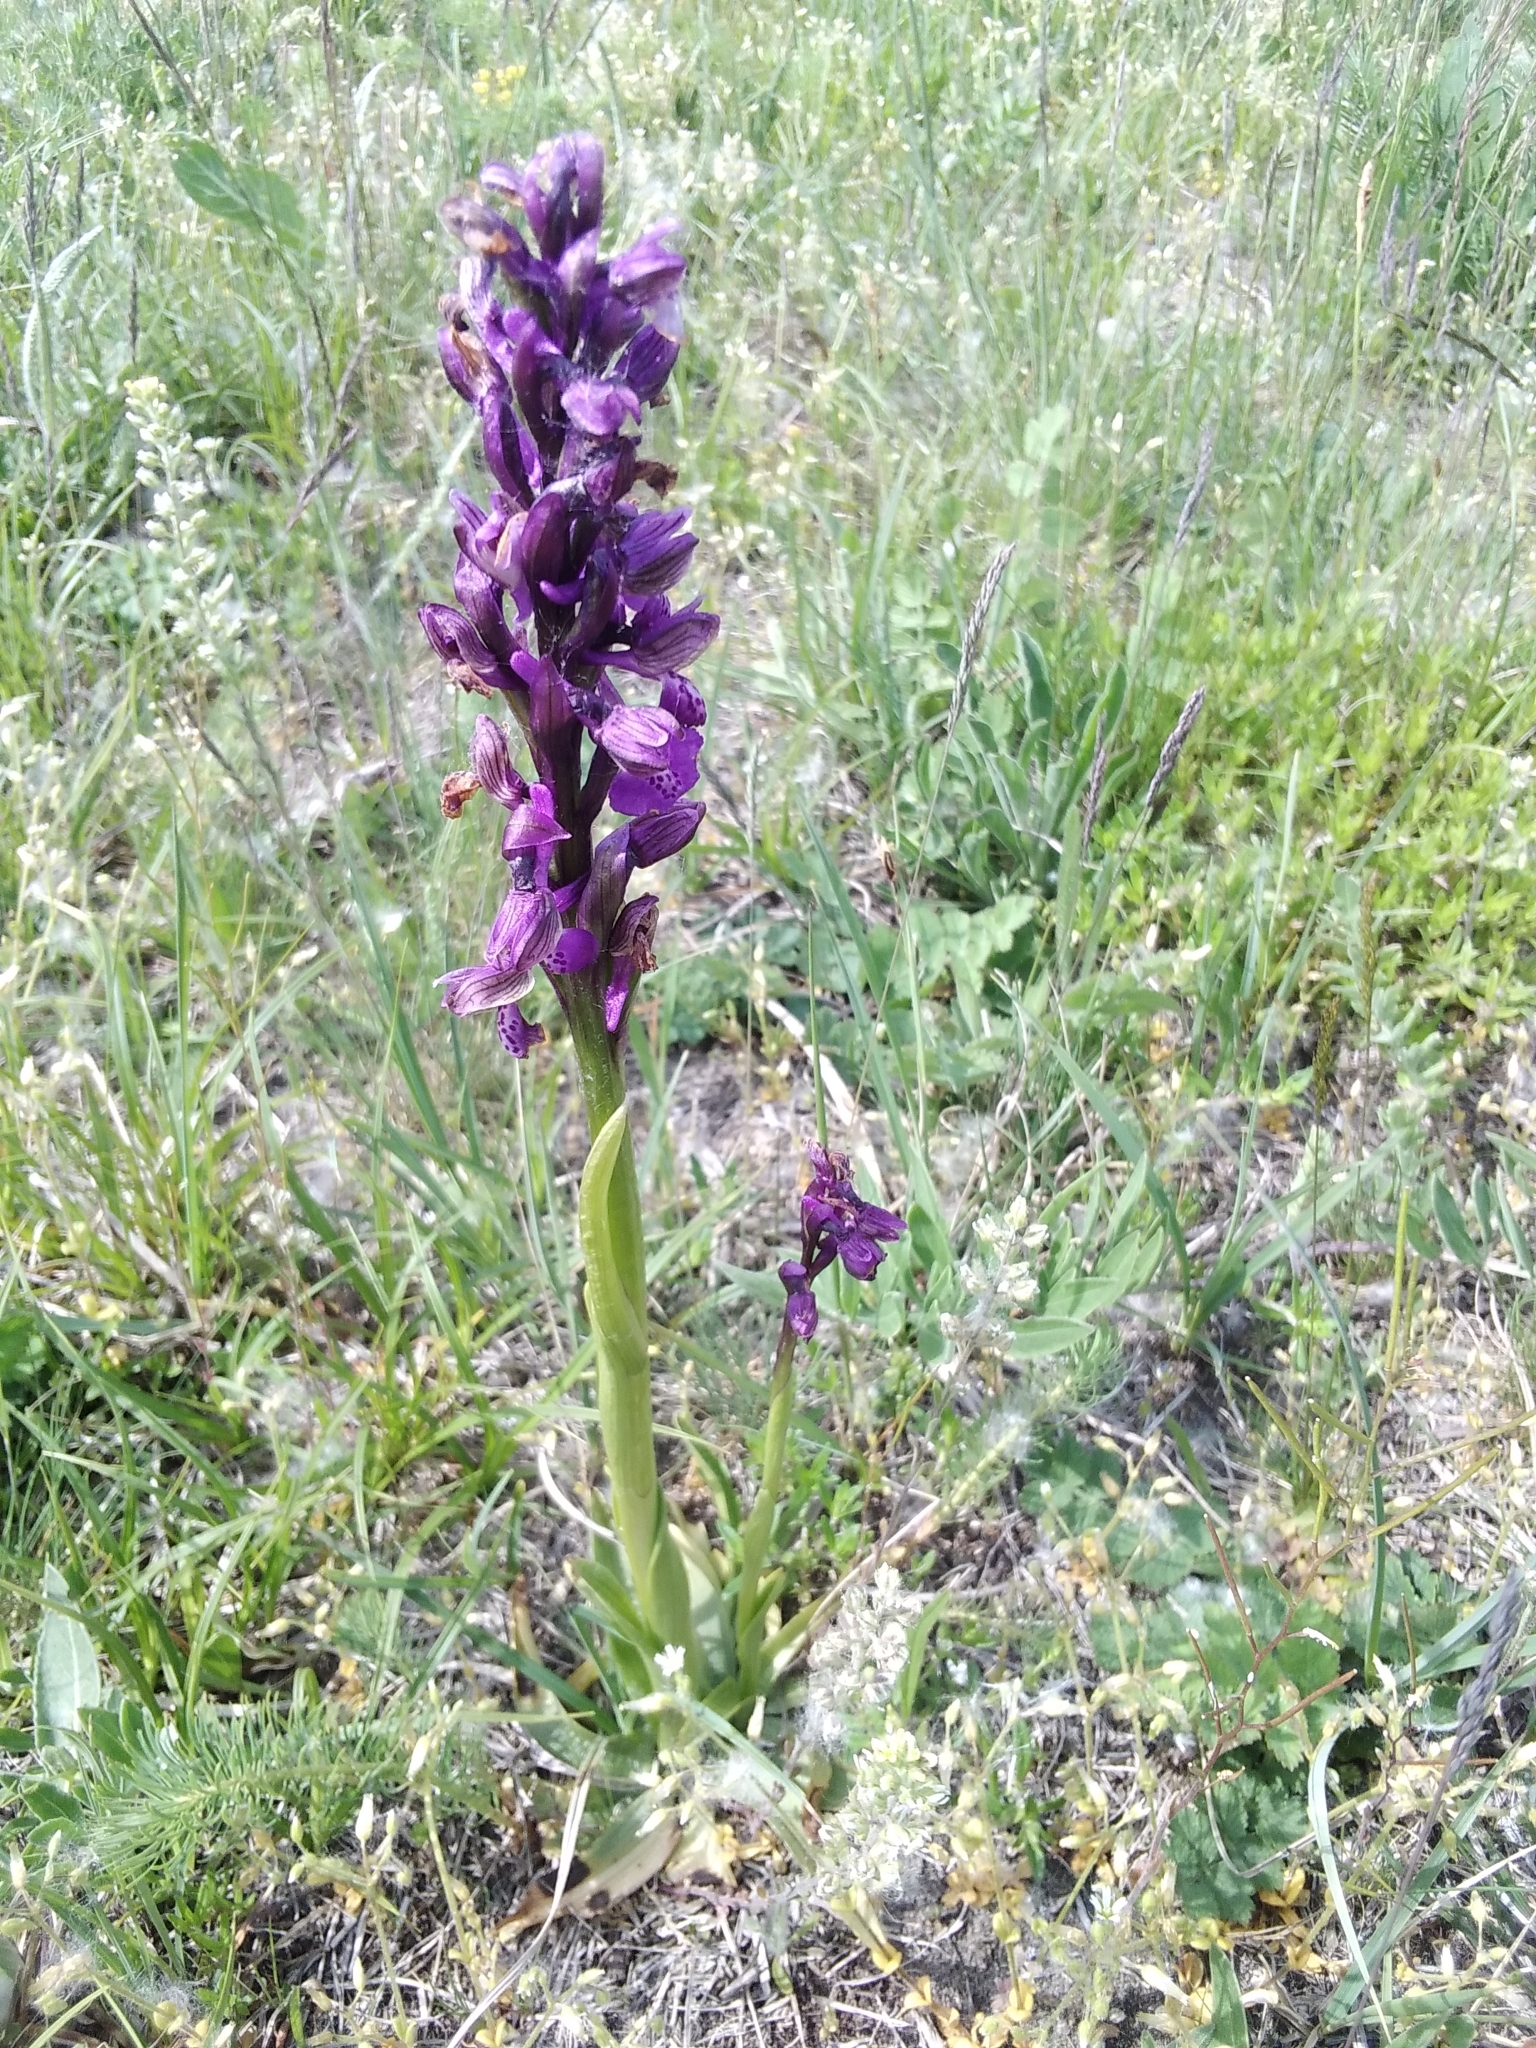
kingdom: Plantae
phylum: Tracheophyta
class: Liliopsida
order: Asparagales
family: Orchidaceae
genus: Anacamptis
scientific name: Anacamptis morio
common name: Green-winged orchid
